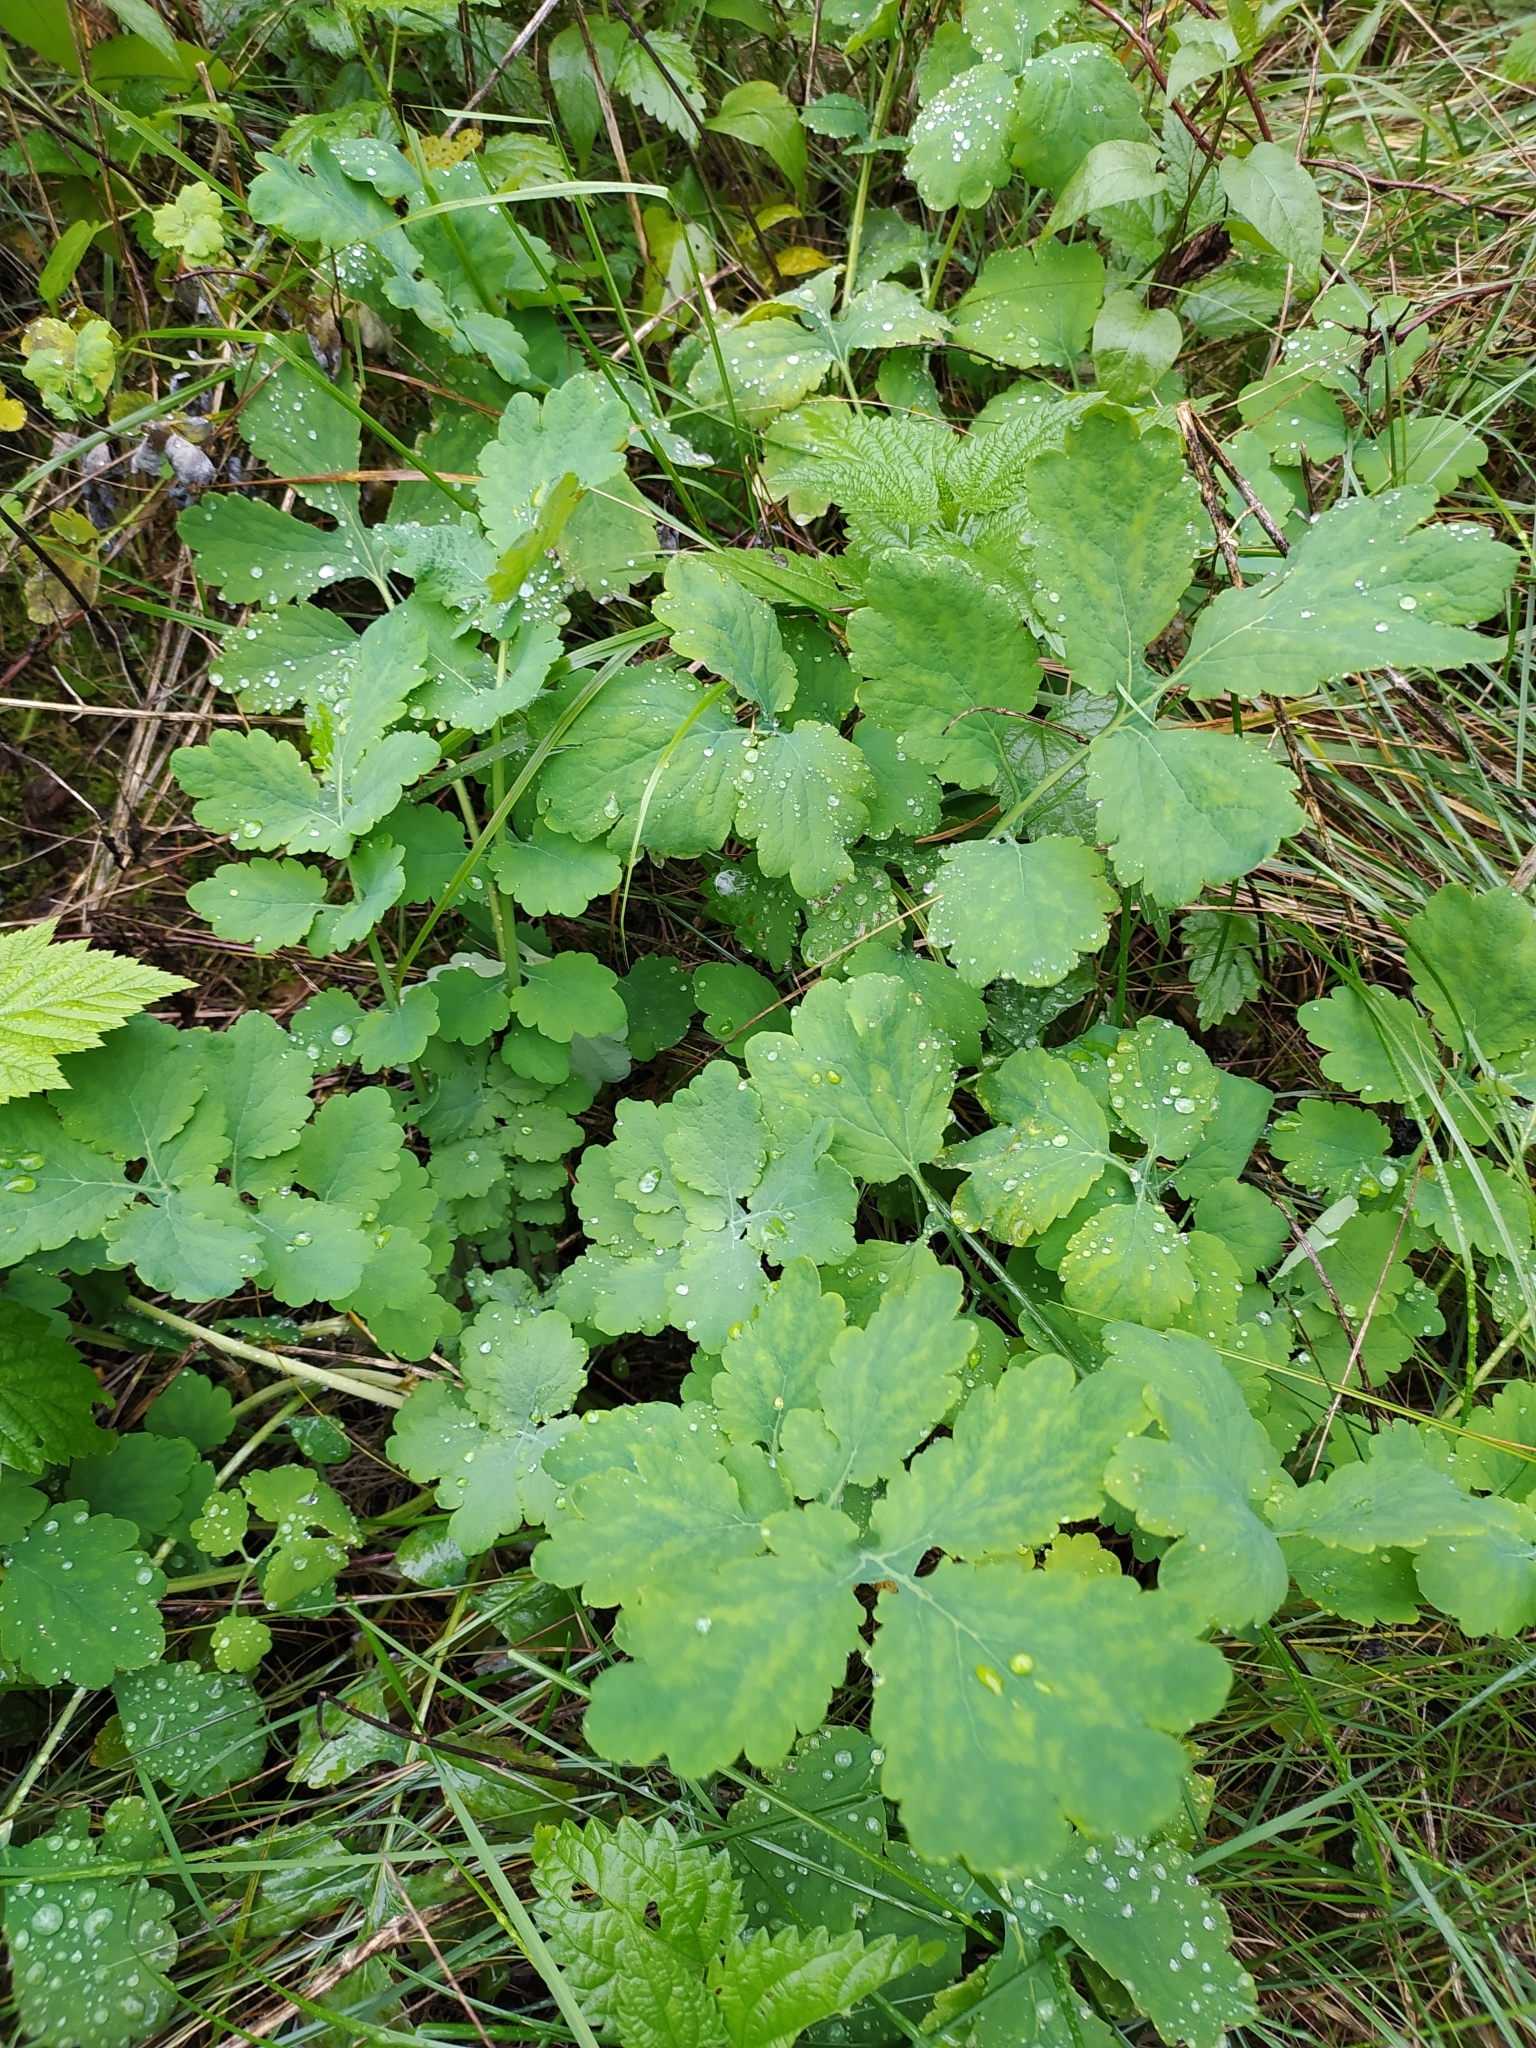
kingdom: Plantae
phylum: Tracheophyta
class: Magnoliopsida
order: Ranunculales
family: Papaveraceae
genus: Chelidonium
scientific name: Chelidonium majus
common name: Greater celandine
